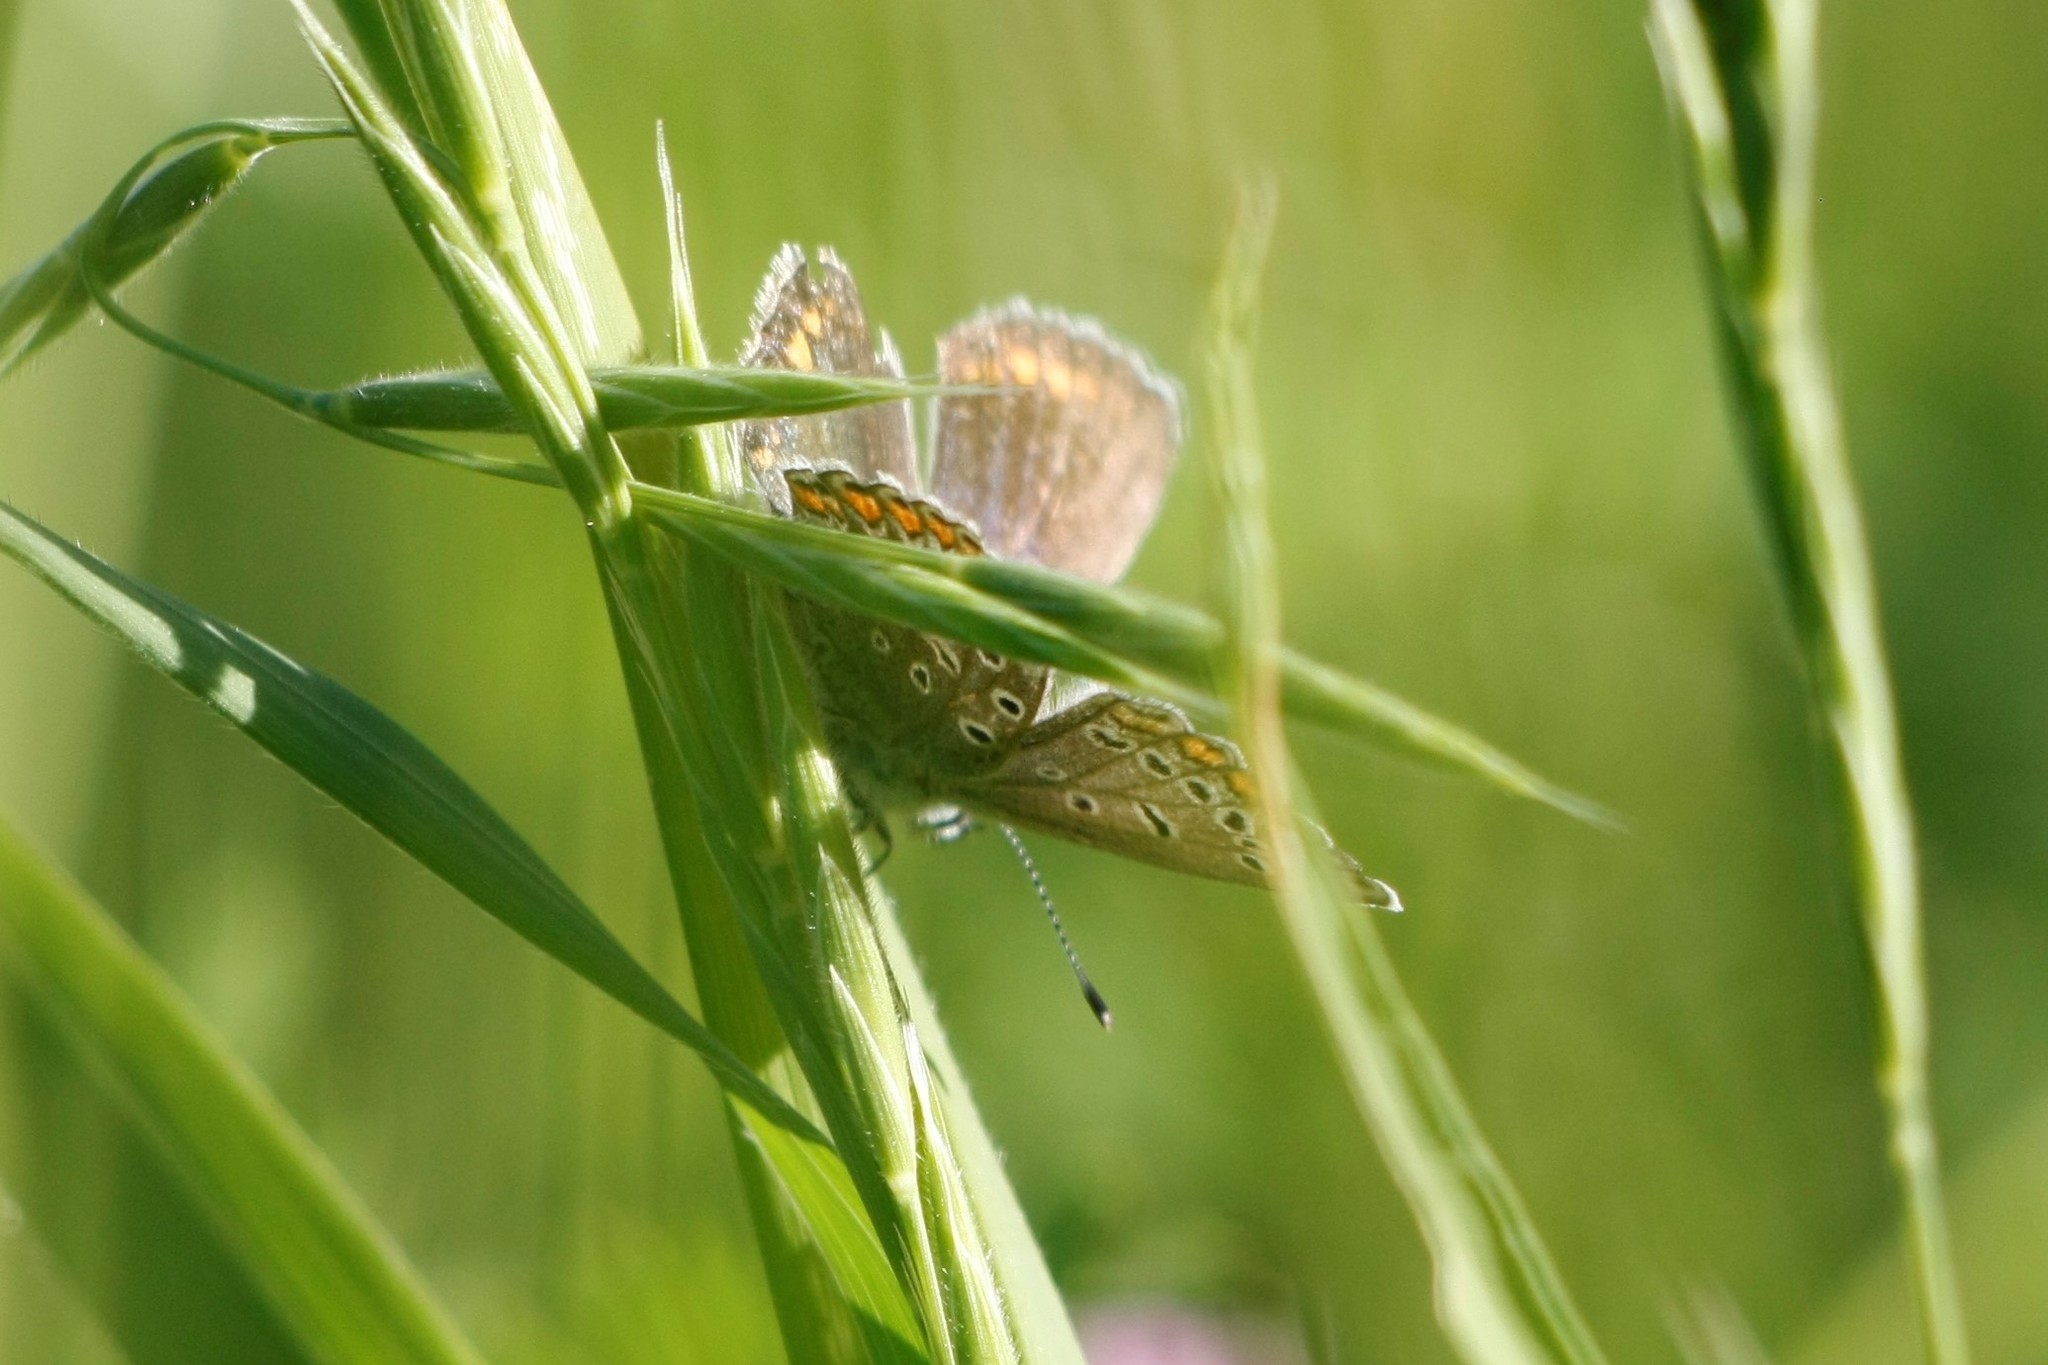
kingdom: Animalia
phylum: Arthropoda
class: Insecta
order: Lepidoptera
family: Lycaenidae
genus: Polyommatus
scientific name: Polyommatus icarus
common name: Common blue
